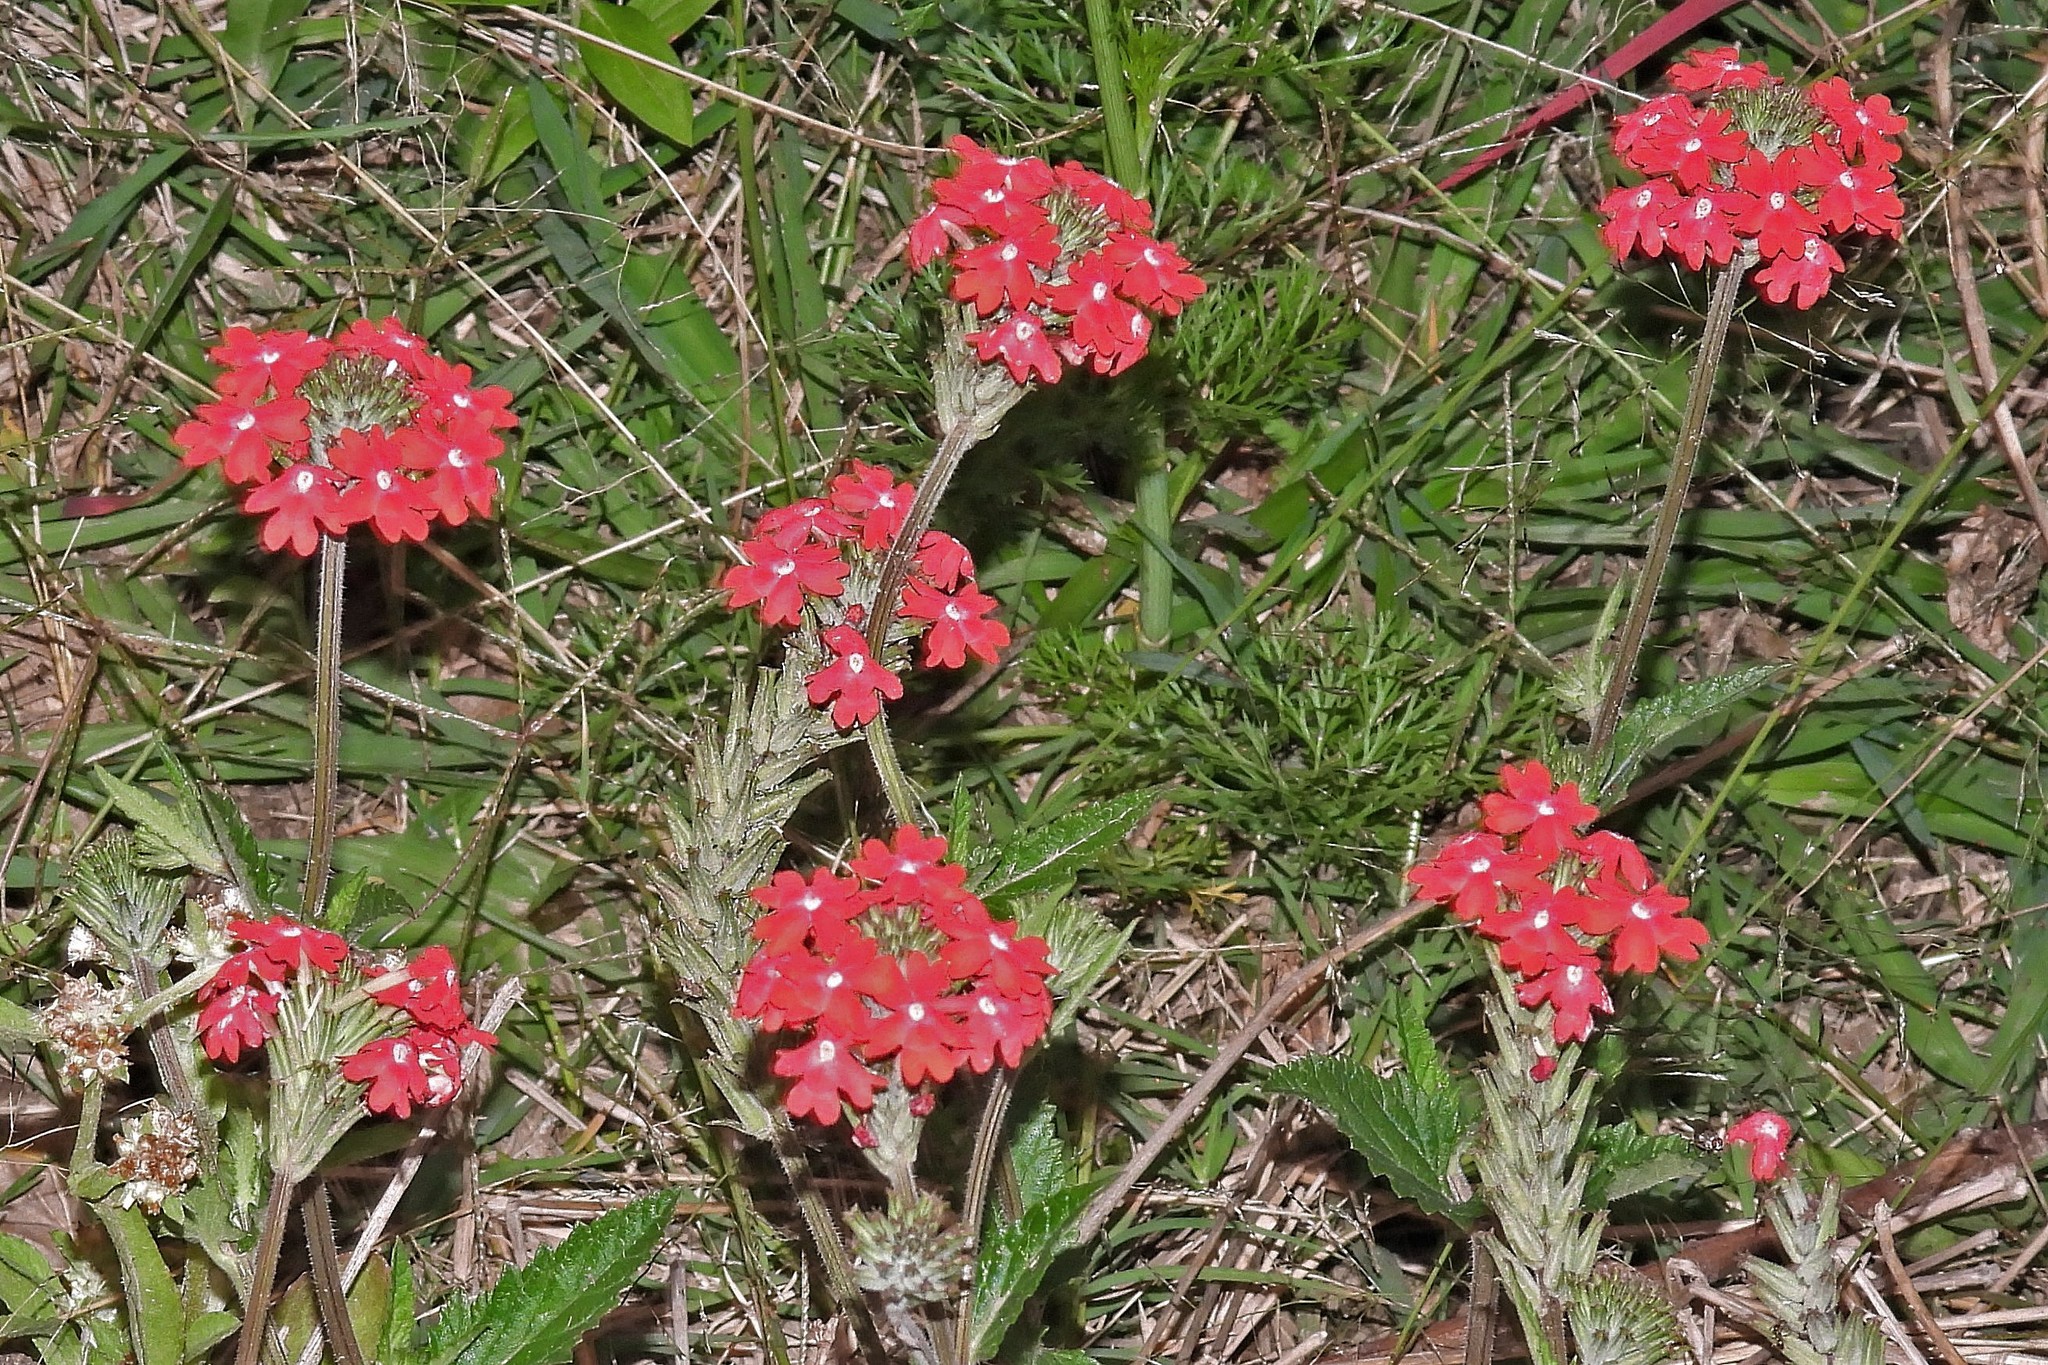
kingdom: Plantae
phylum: Tracheophyta
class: Magnoliopsida
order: Lamiales
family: Verbenaceae
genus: Verbena
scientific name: Verbena tweedieana
